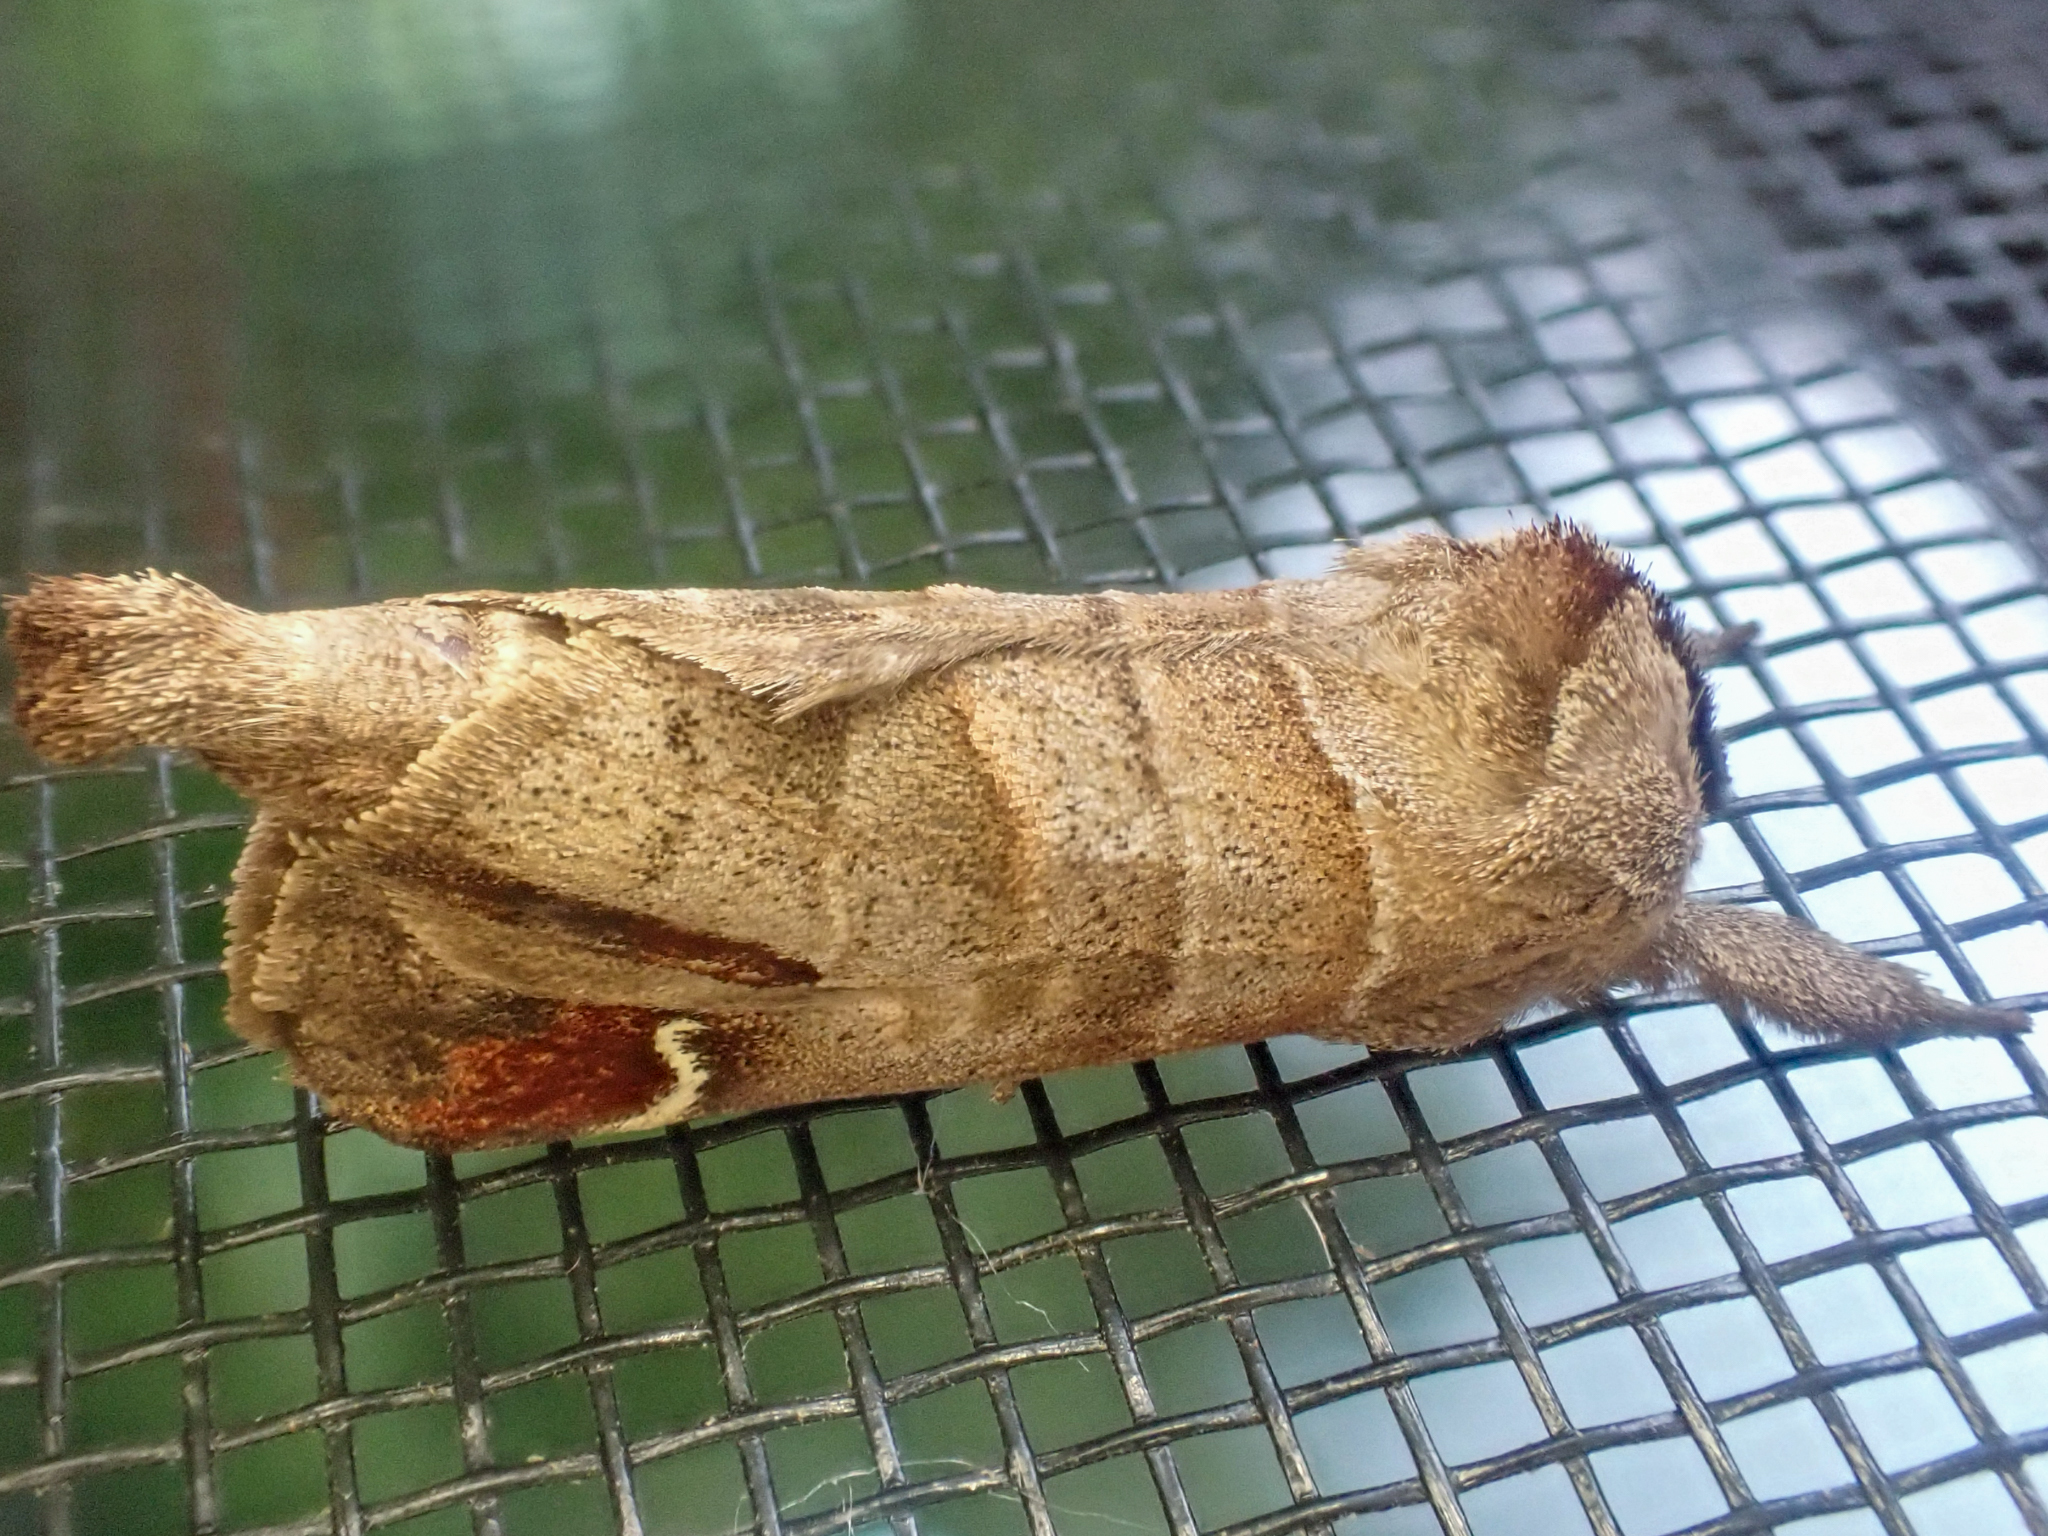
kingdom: Animalia
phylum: Arthropoda
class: Insecta
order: Lepidoptera
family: Notodontidae
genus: Clostera
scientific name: Clostera albosigma
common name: Sigmoid prominent
